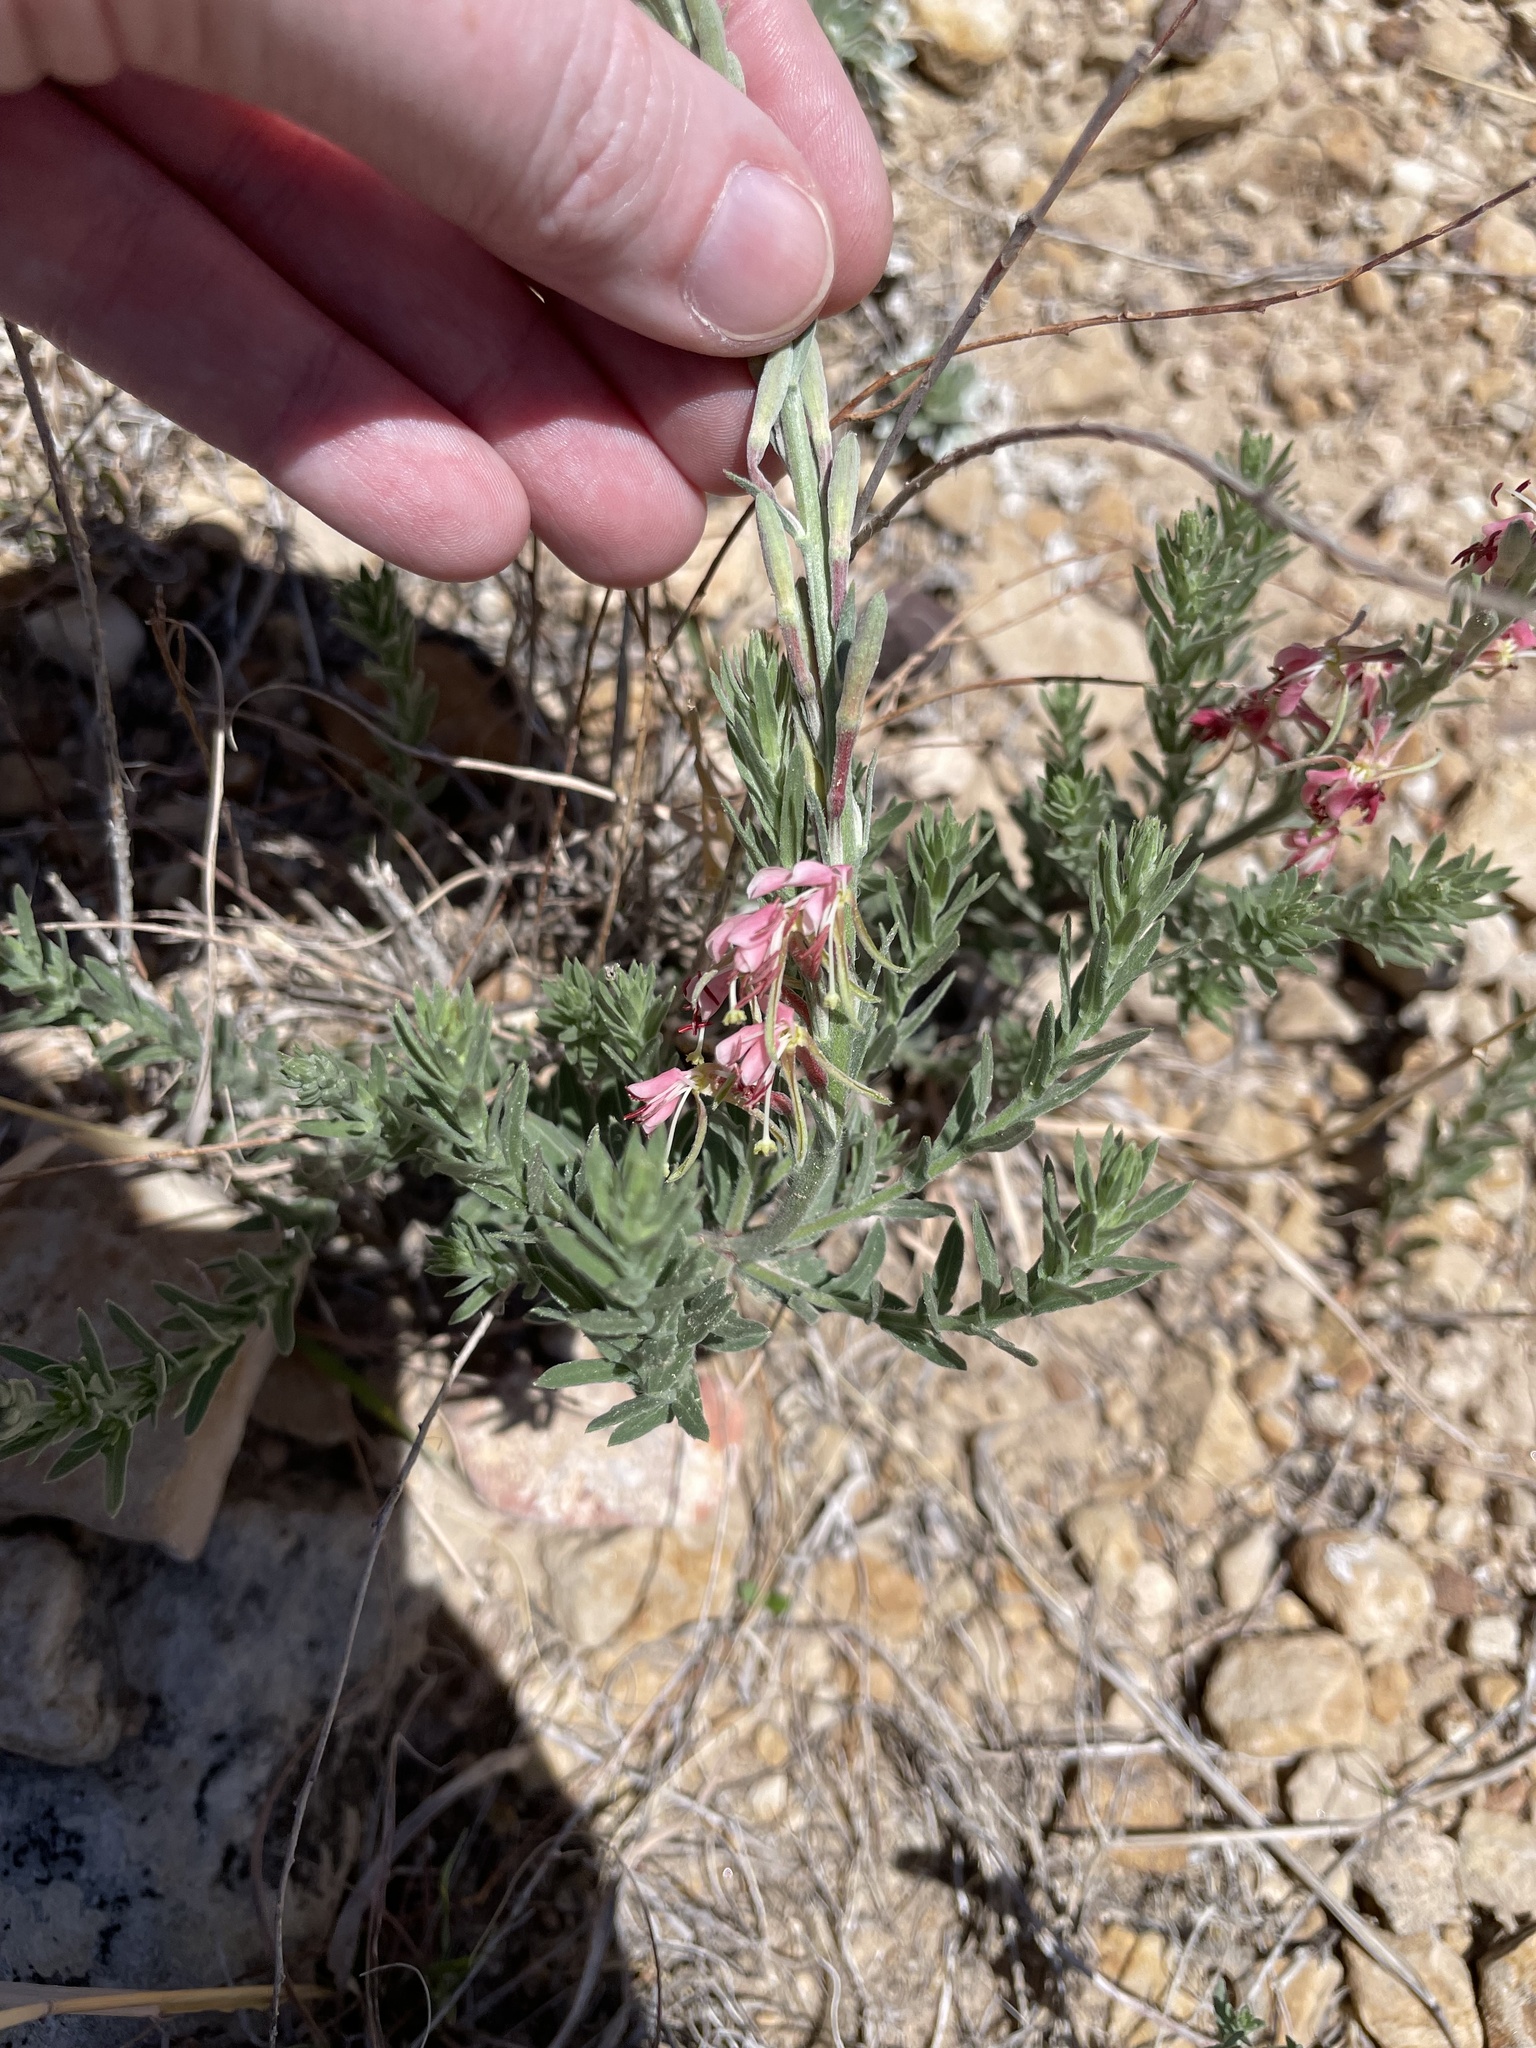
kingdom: Plantae
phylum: Tracheophyta
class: Magnoliopsida
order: Myrtales
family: Onagraceae
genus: Oenothera
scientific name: Oenothera suffrutescens
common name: Scarlet beeblossom
